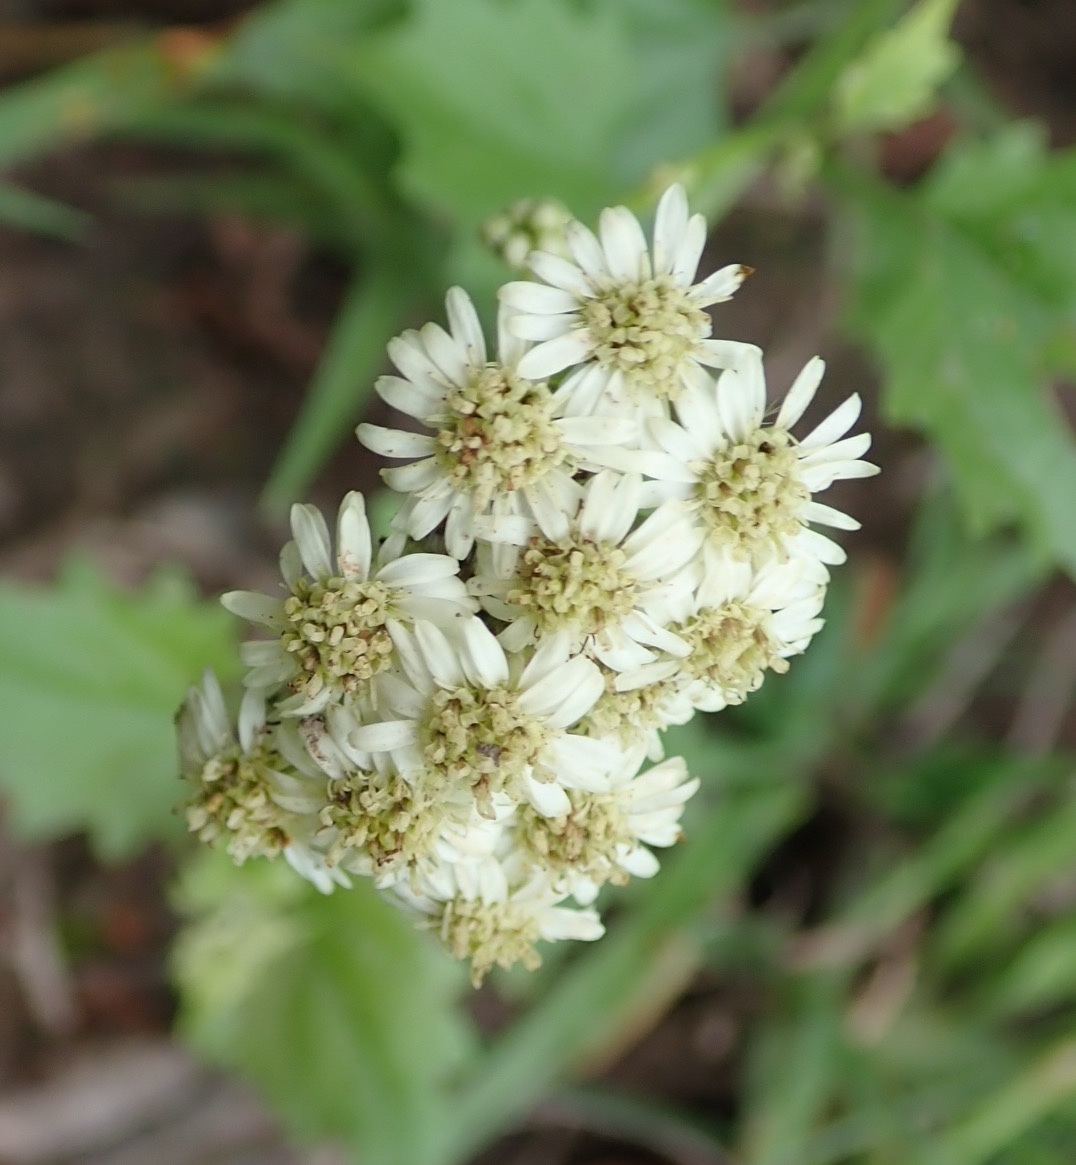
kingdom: Plantae
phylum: Tracheophyta
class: Magnoliopsida
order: Asterales
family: Asteraceae
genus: Microglossa
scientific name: Microglossa mespilifolia
